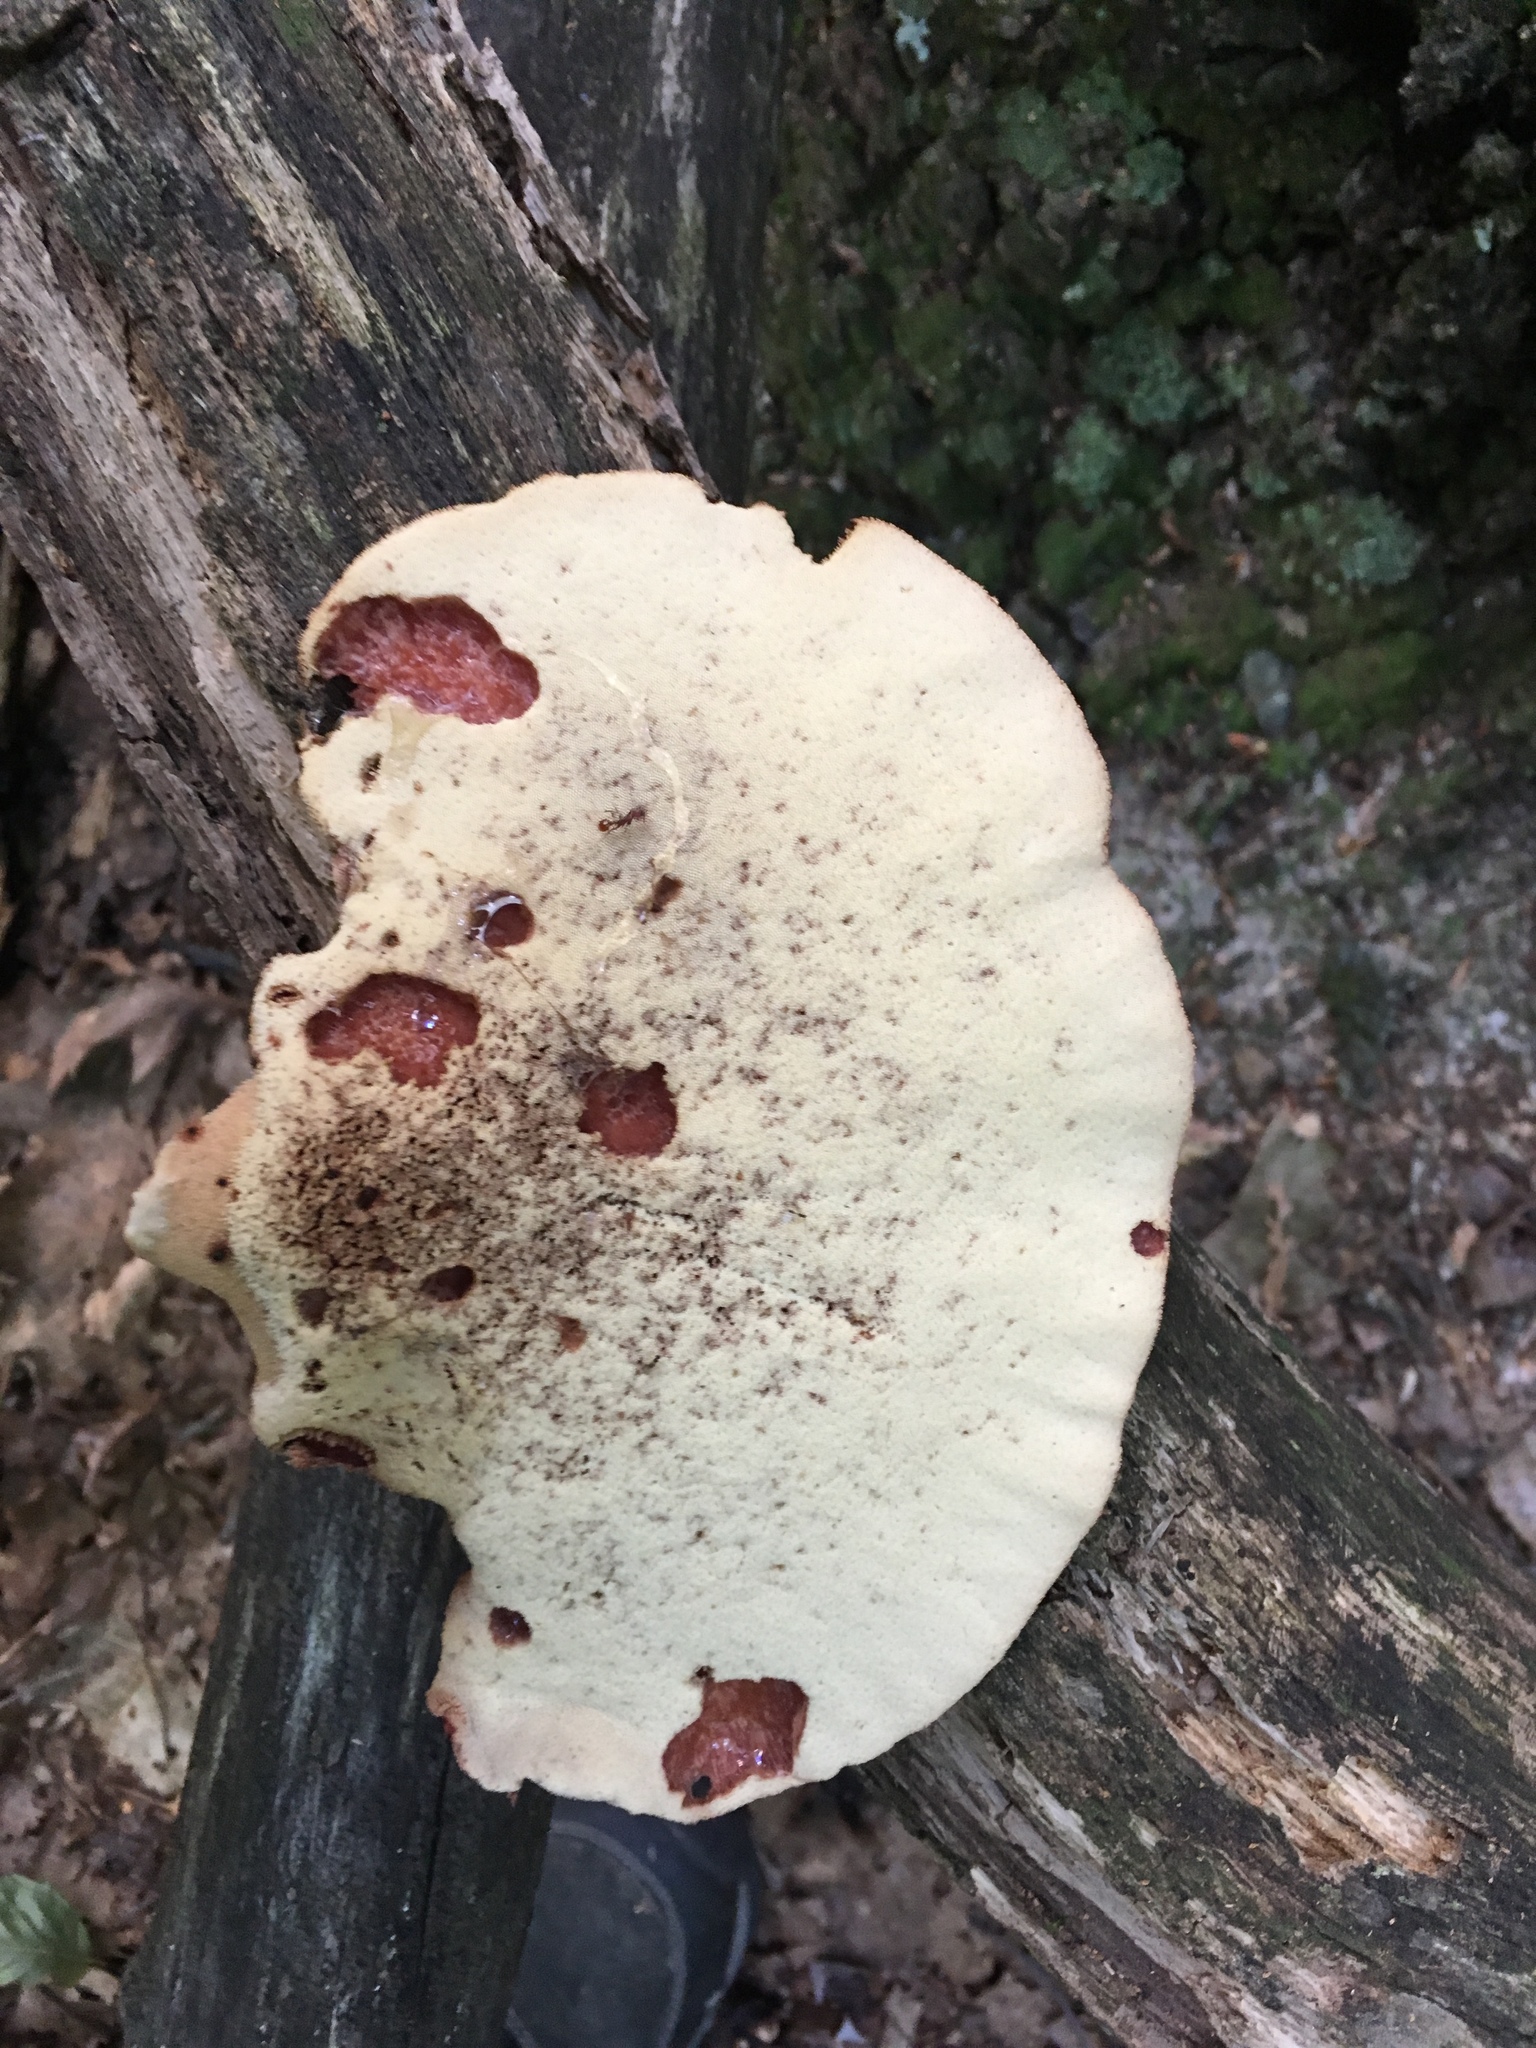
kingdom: Fungi
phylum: Basidiomycota
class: Agaricomycetes
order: Agaricales
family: Fistulinaceae
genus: Fistulina
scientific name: Fistulina hepatica
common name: Beef-steak fungus
